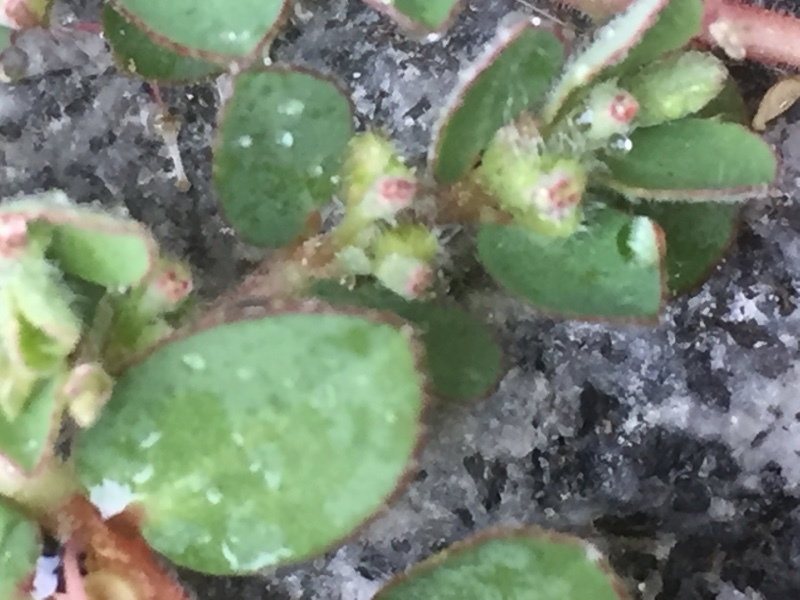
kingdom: Plantae
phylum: Tracheophyta
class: Magnoliopsida
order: Malpighiales
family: Euphorbiaceae
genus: Euphorbia
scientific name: Euphorbia prostrata
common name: Prostrate sandmat
